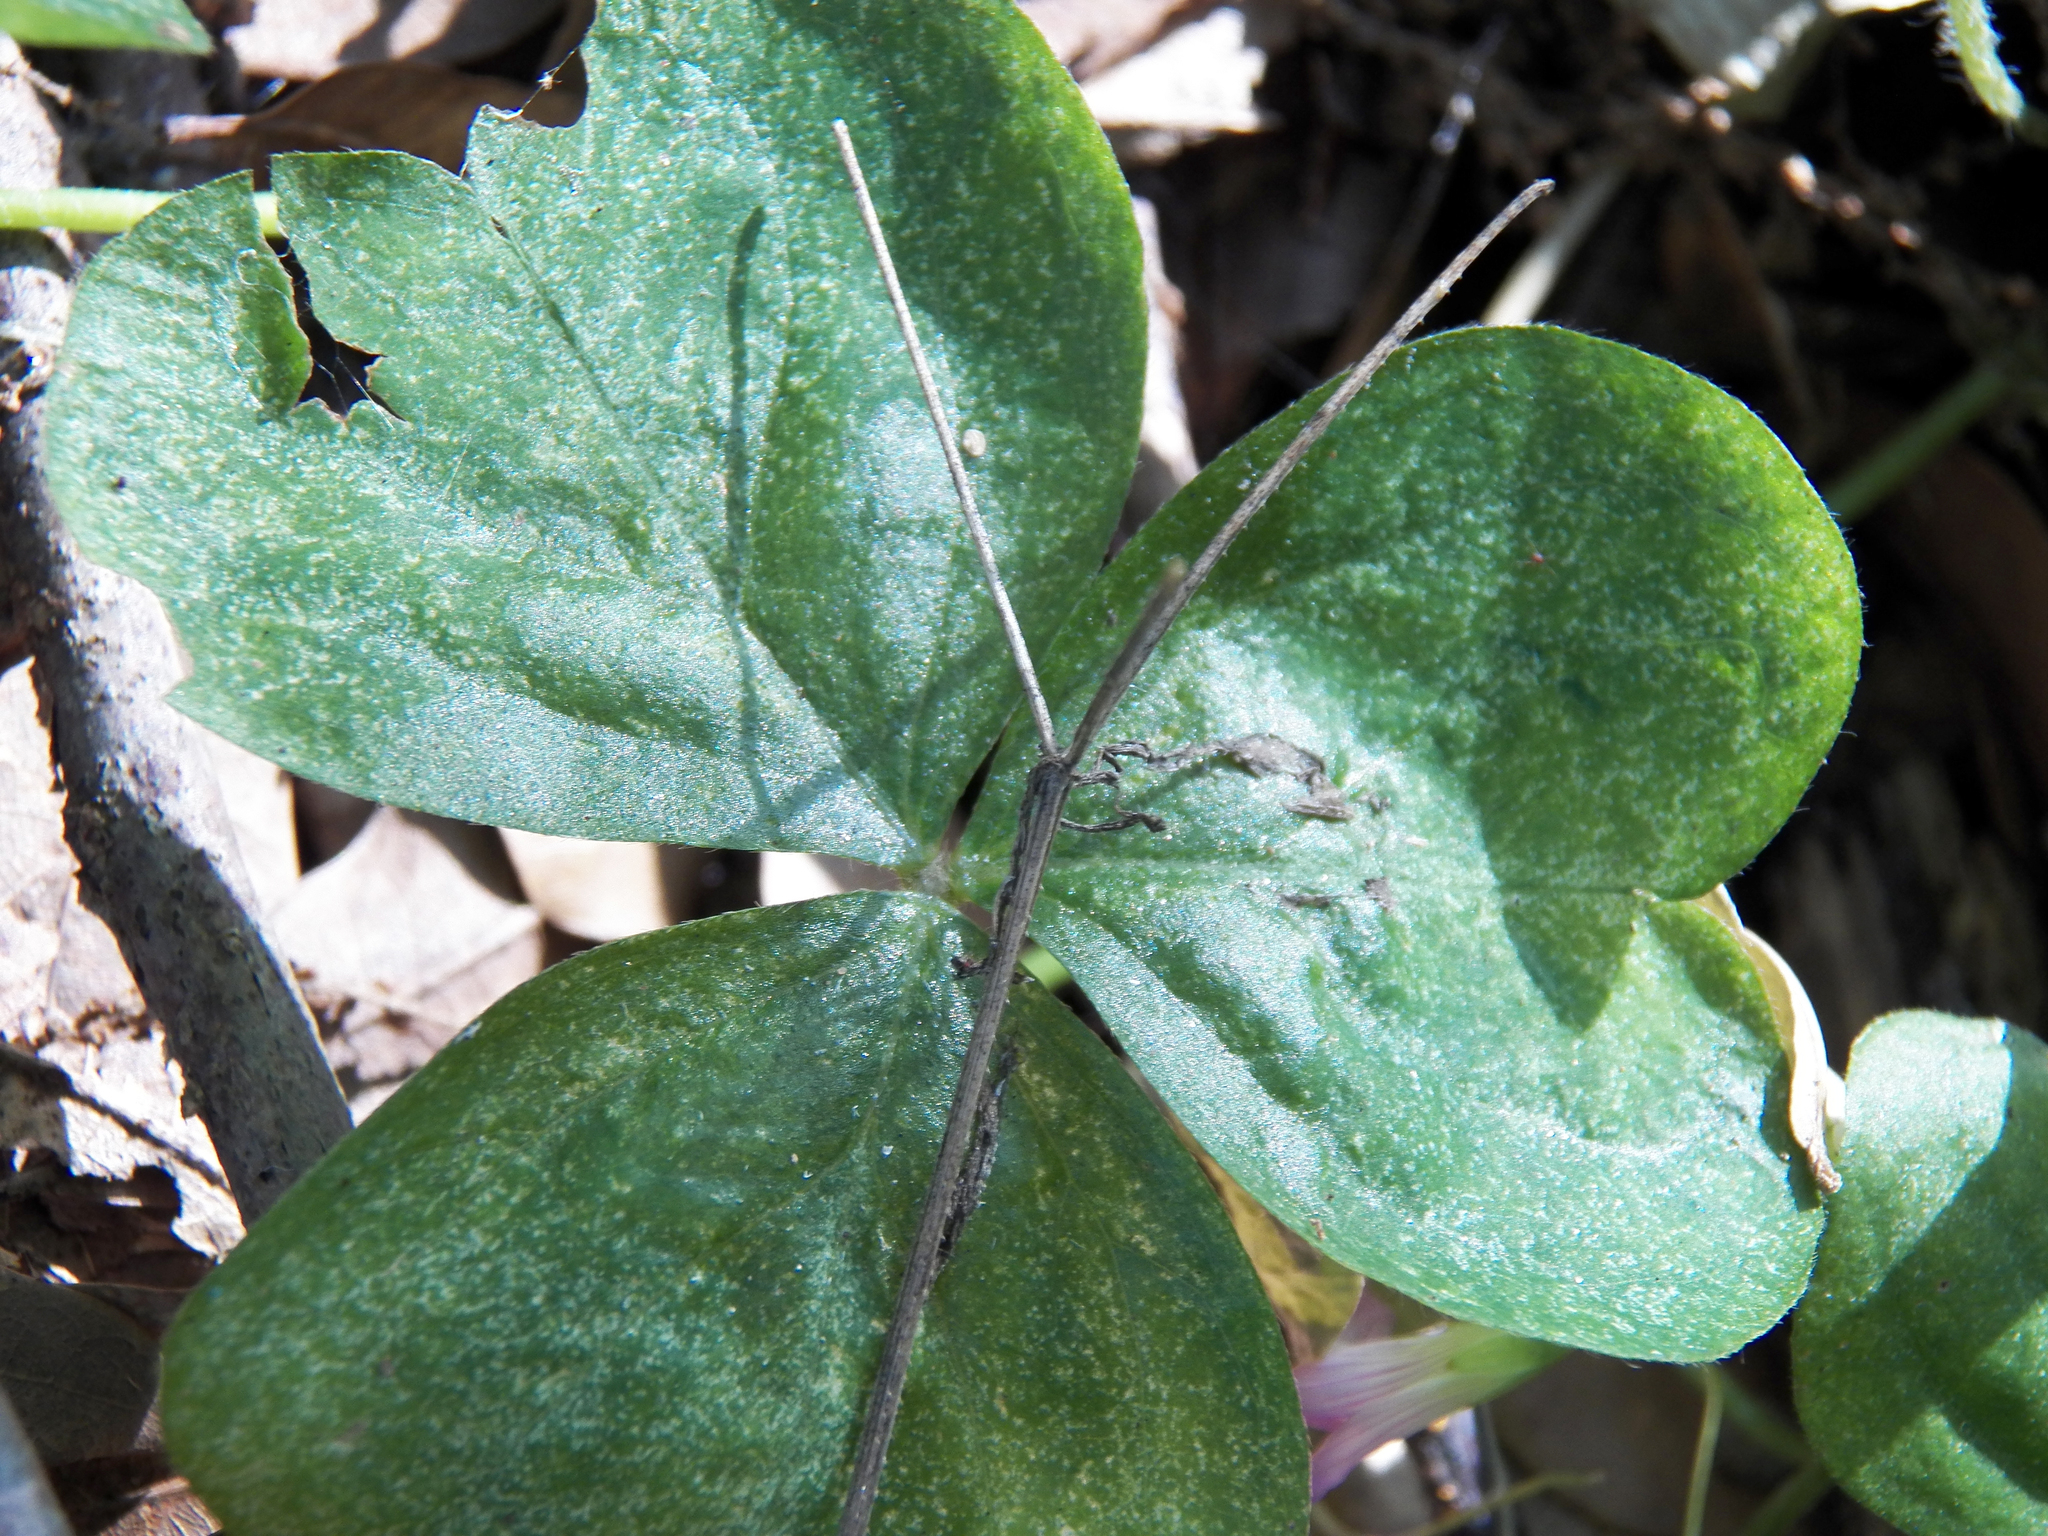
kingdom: Plantae
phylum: Tracheophyta
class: Magnoliopsida
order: Oxalidales
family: Oxalidaceae
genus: Oxalis
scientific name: Oxalis debilis
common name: Large-flowered pink-sorrel
